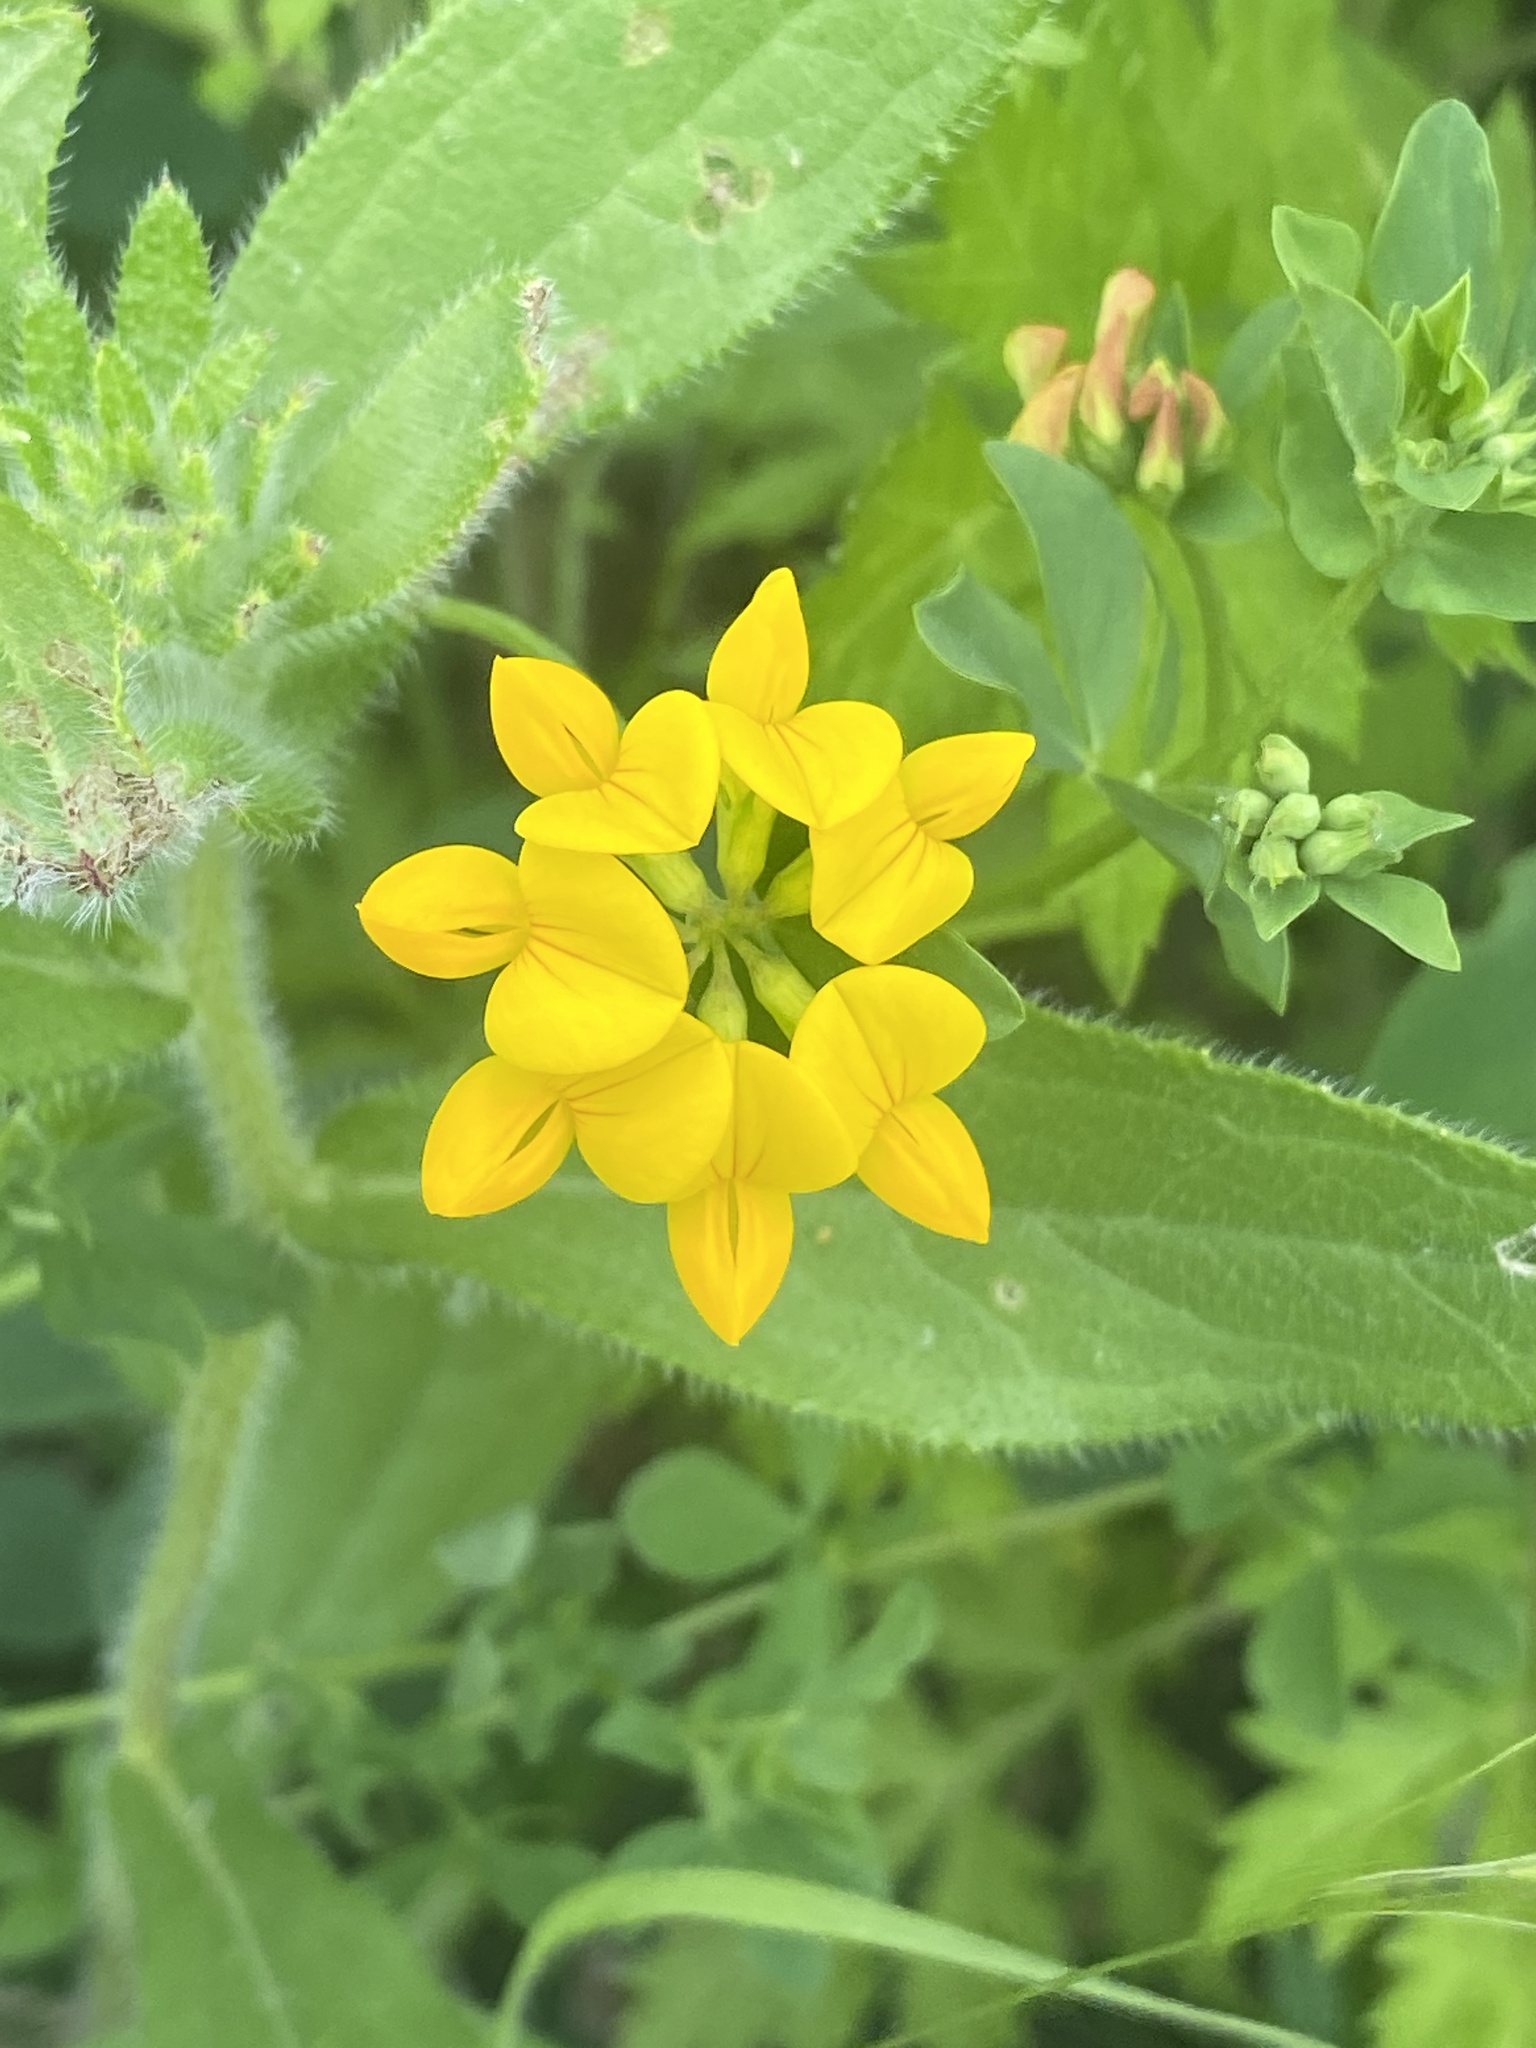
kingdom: Plantae
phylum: Tracheophyta
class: Magnoliopsida
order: Fabales
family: Fabaceae
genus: Lotus
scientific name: Lotus corniculatus
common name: Common bird's-foot-trefoil
